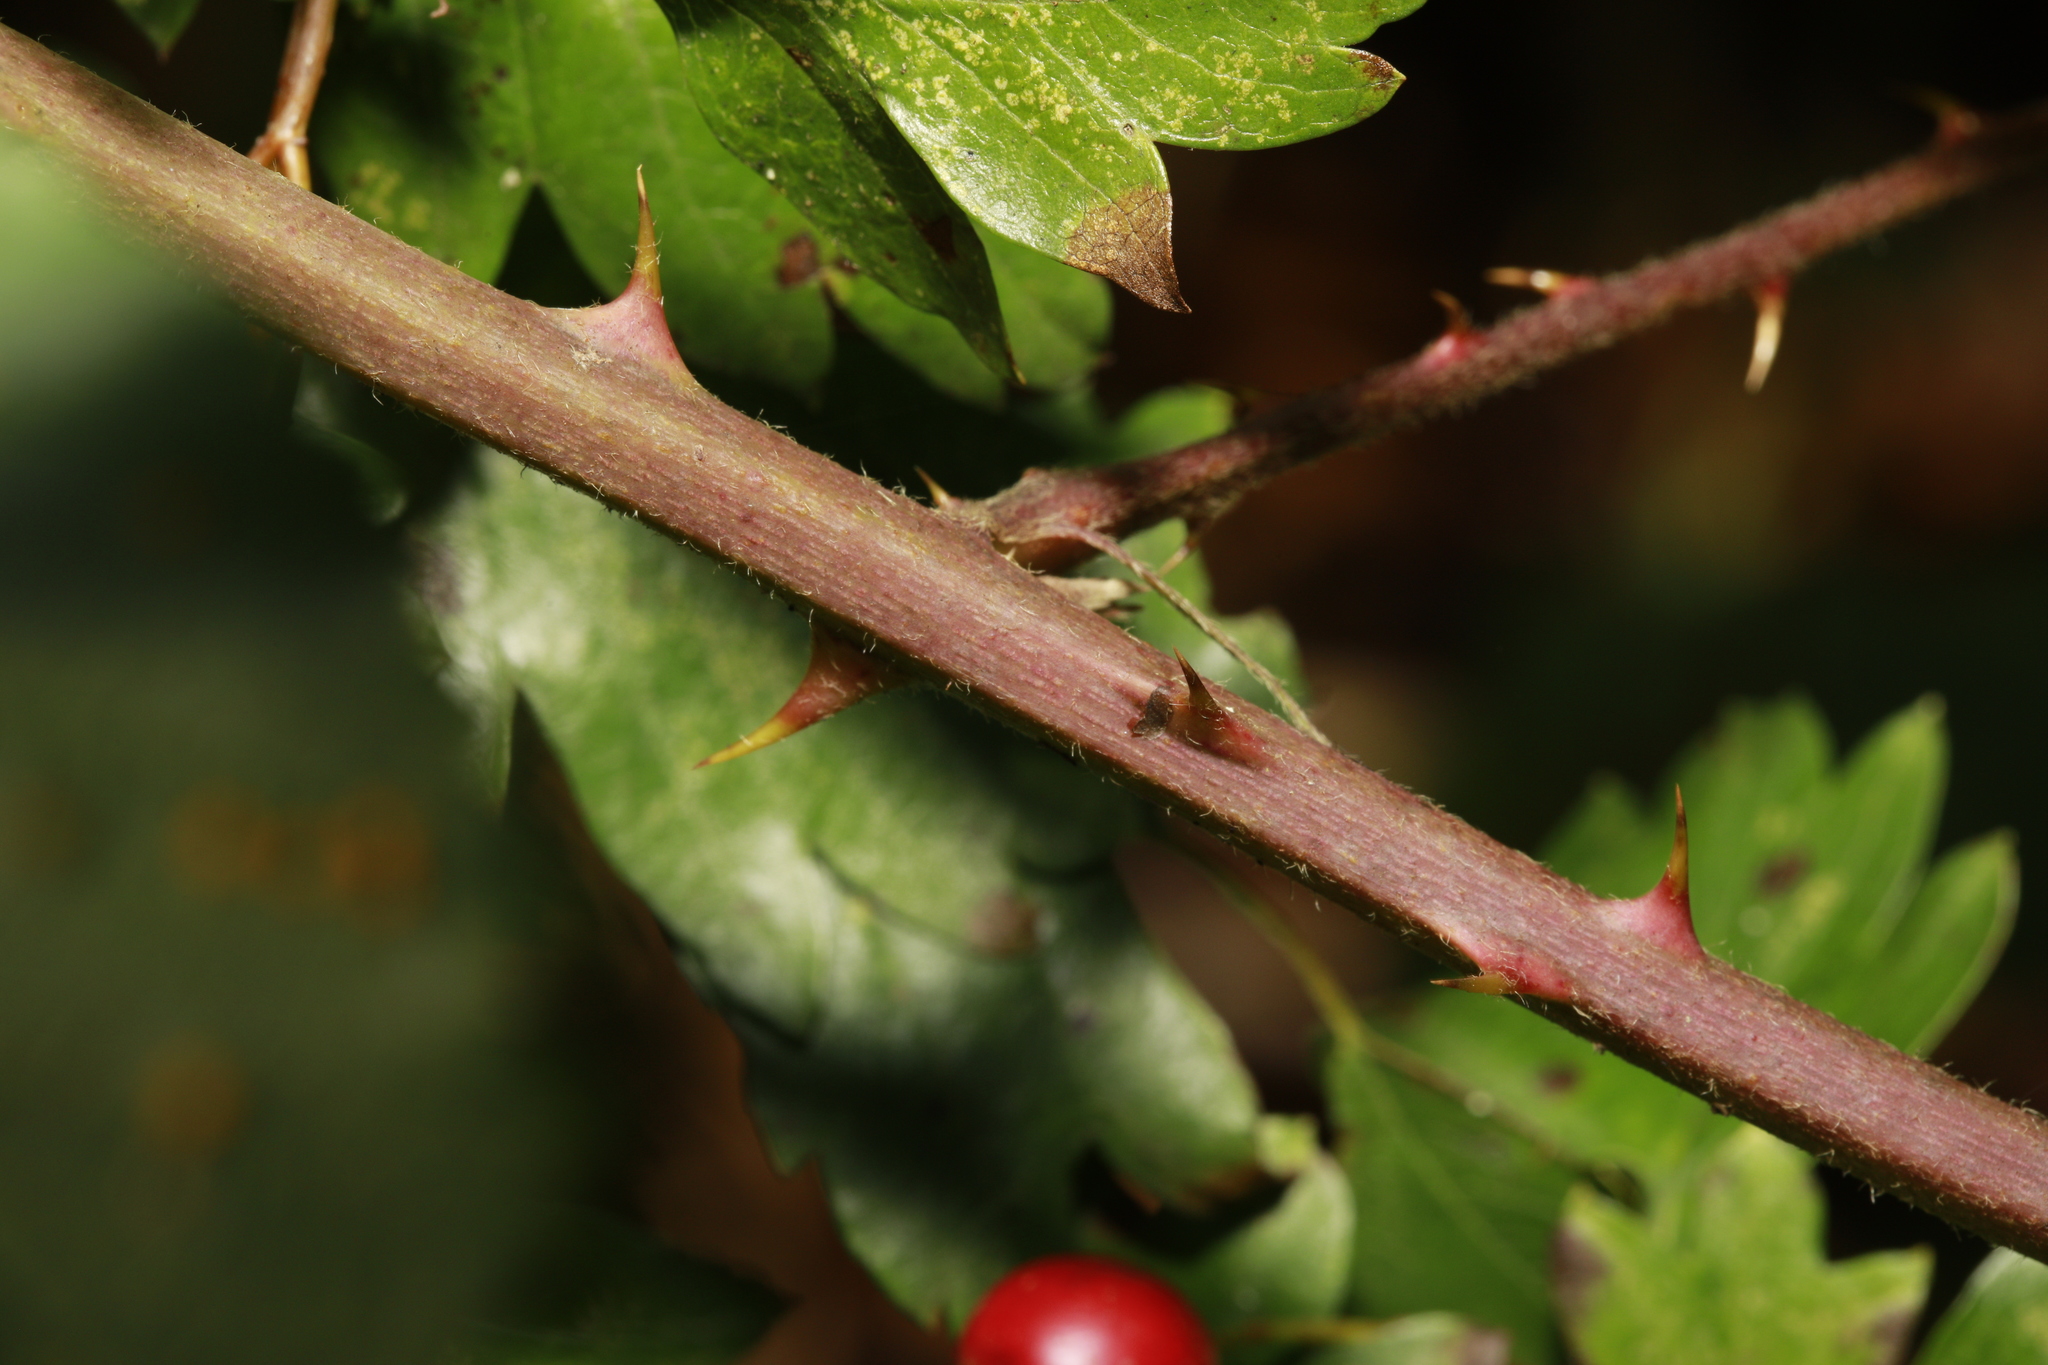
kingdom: Plantae
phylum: Tracheophyta
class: Magnoliopsida
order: Rosales
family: Rosaceae
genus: Rubus
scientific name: Rubus questieri
